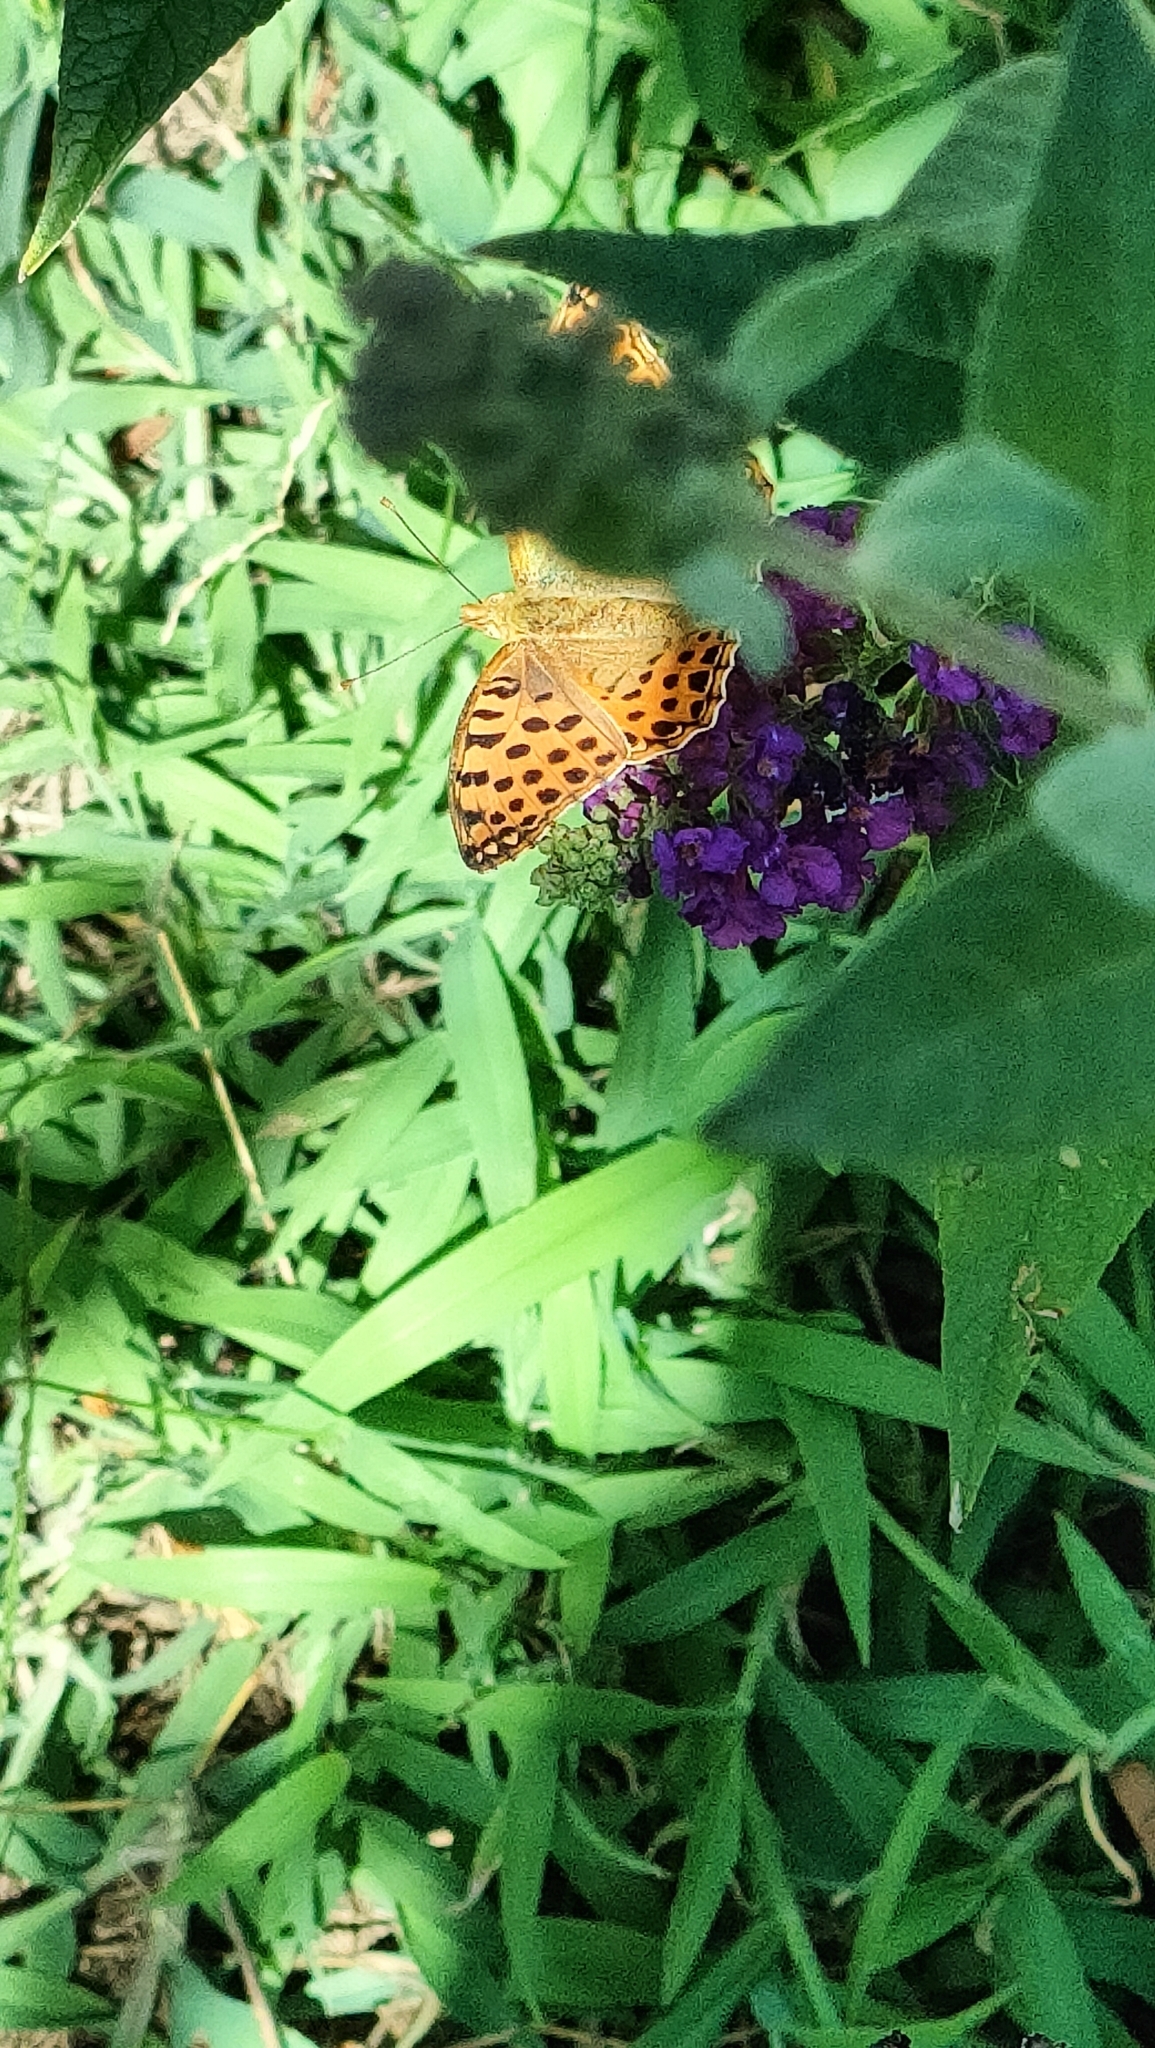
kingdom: Animalia
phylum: Arthropoda
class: Insecta
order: Lepidoptera
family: Nymphalidae
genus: Issoria
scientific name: Issoria lathonia
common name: Queen of spain fritillary
